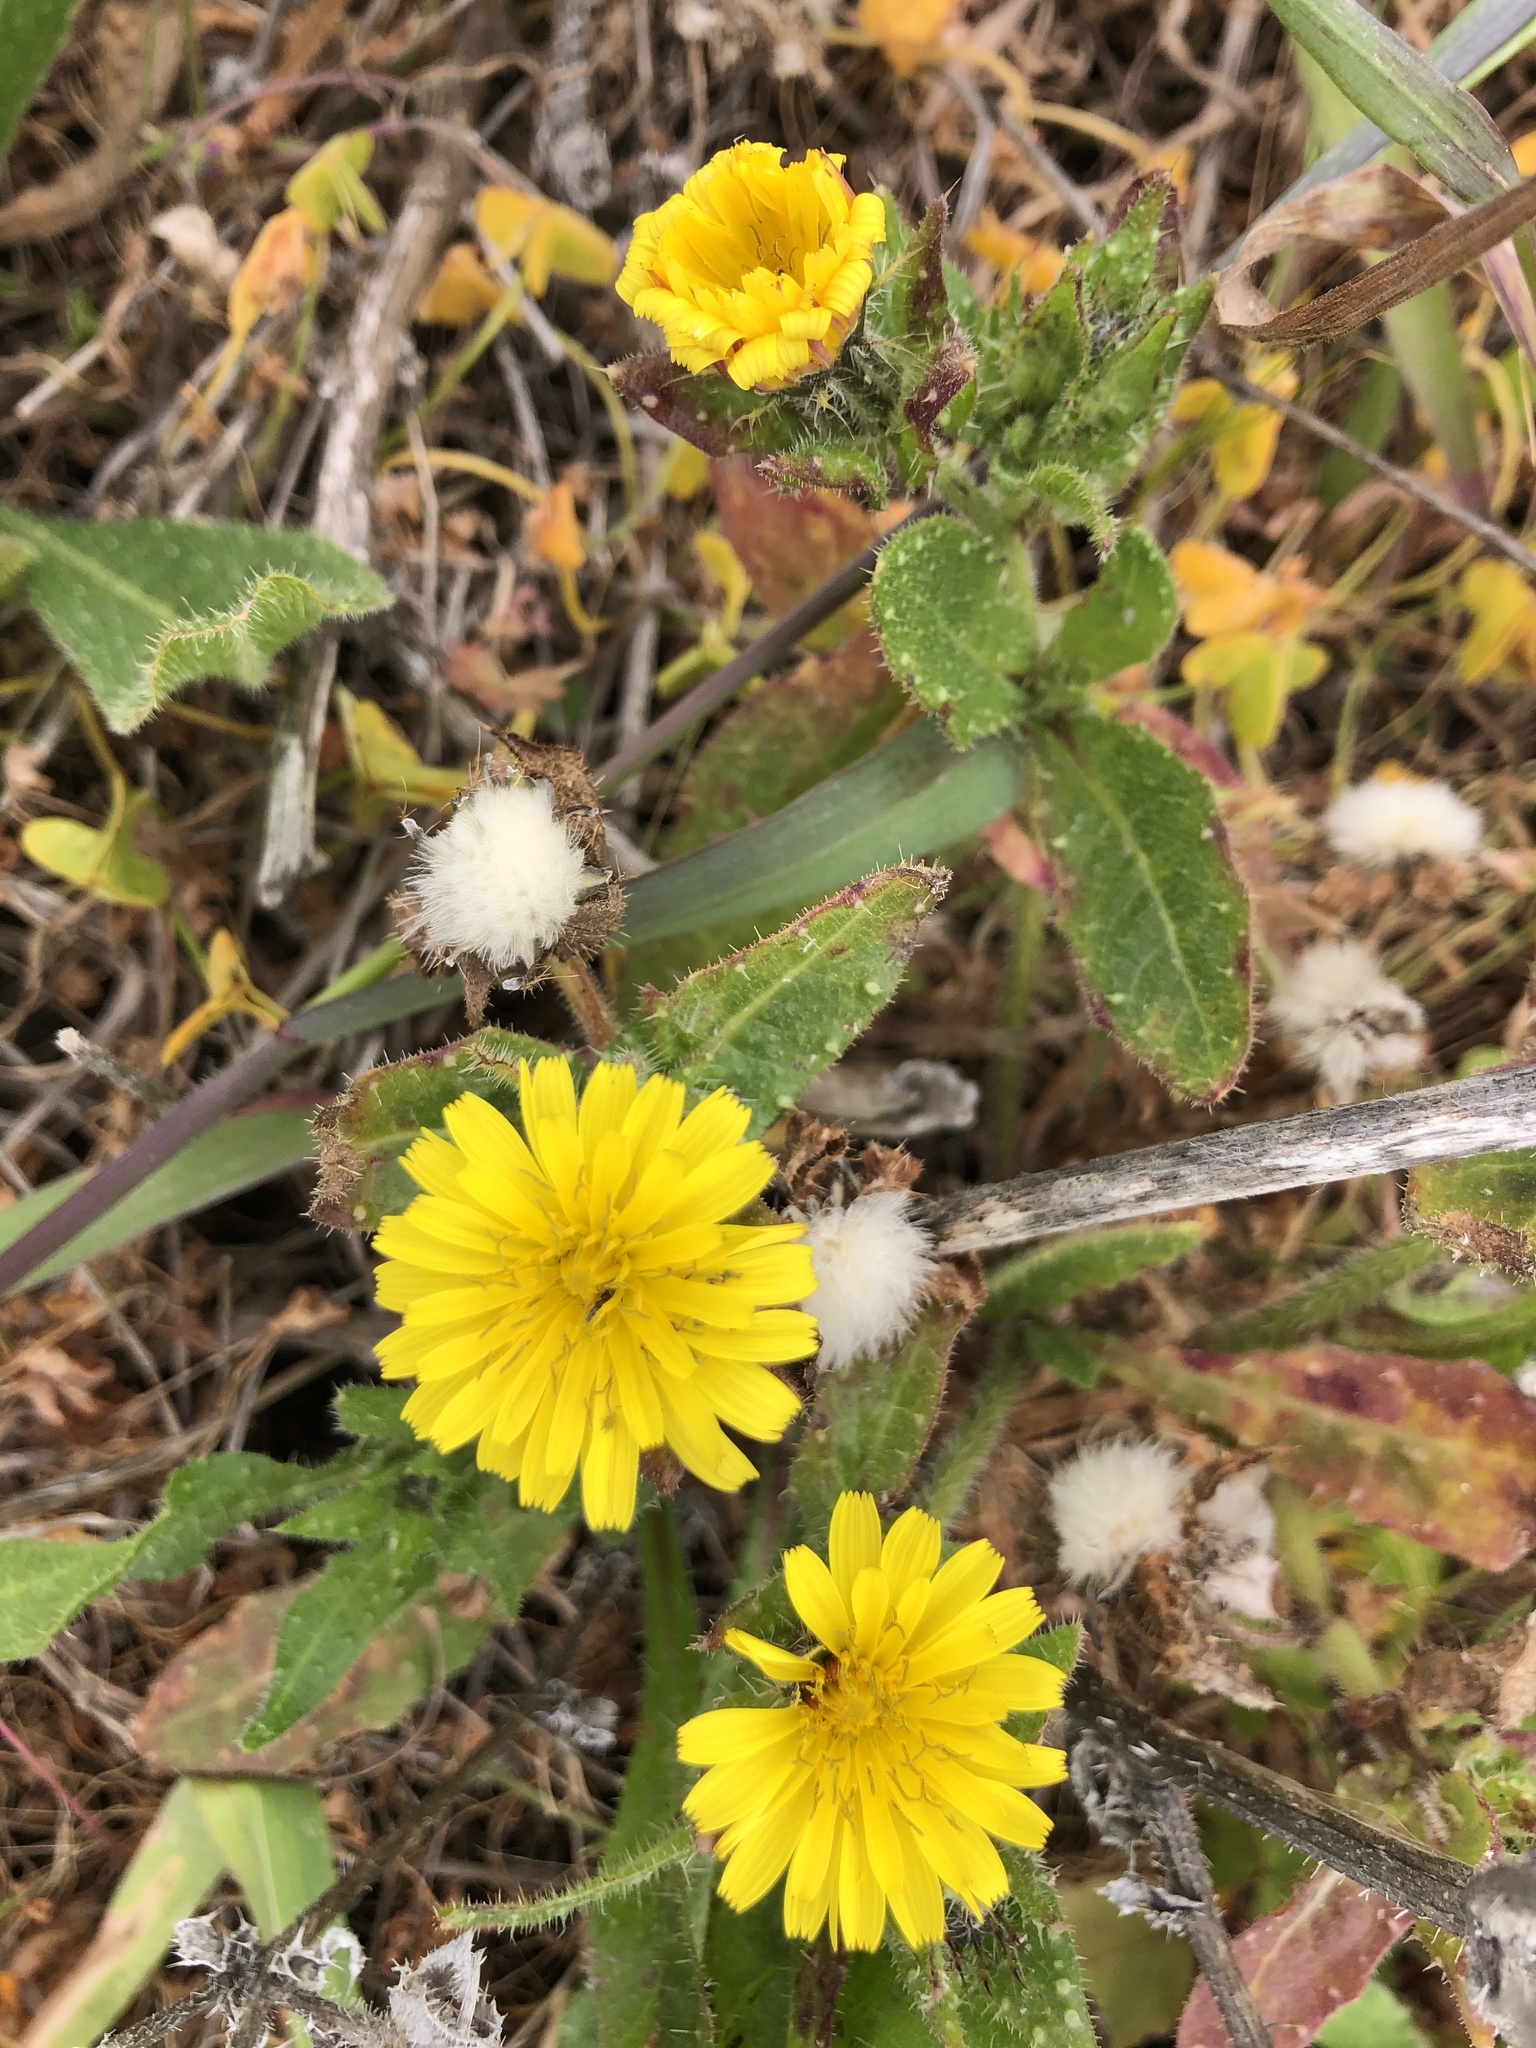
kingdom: Plantae
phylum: Tracheophyta
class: Magnoliopsida
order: Asterales
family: Asteraceae
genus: Helminthotheca
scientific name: Helminthotheca echioides
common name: Ox-tongue
